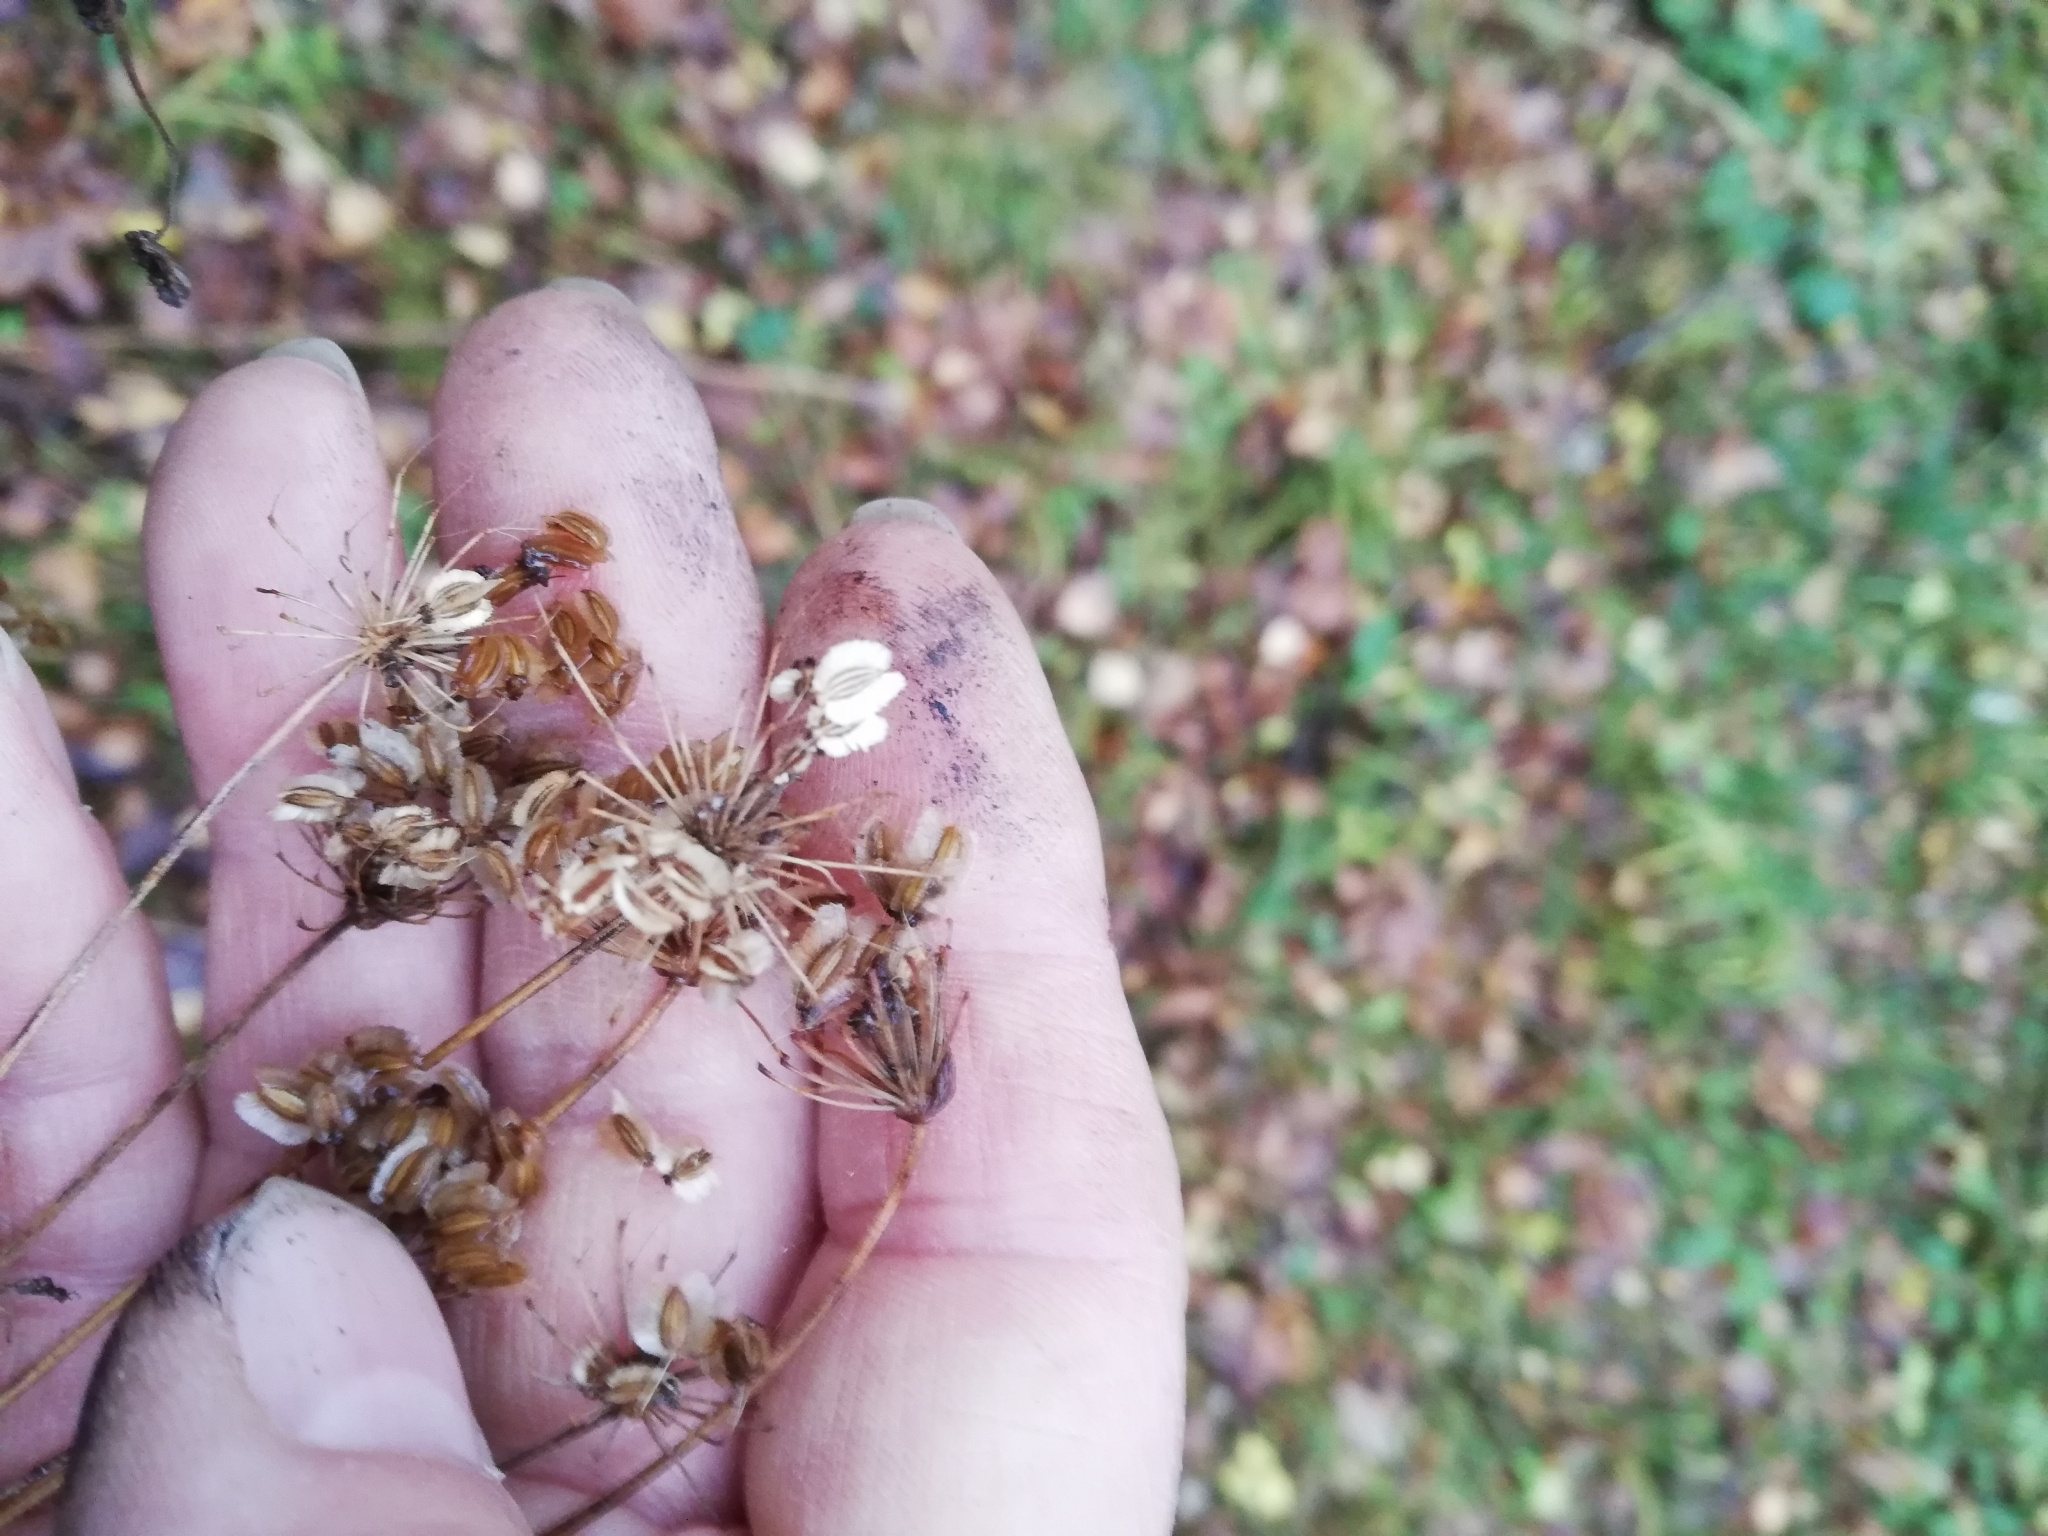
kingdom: Plantae
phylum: Tracheophyta
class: Magnoliopsida
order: Apiales
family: Apiaceae
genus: Silphiodaucus
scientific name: Silphiodaucus prutenicus
